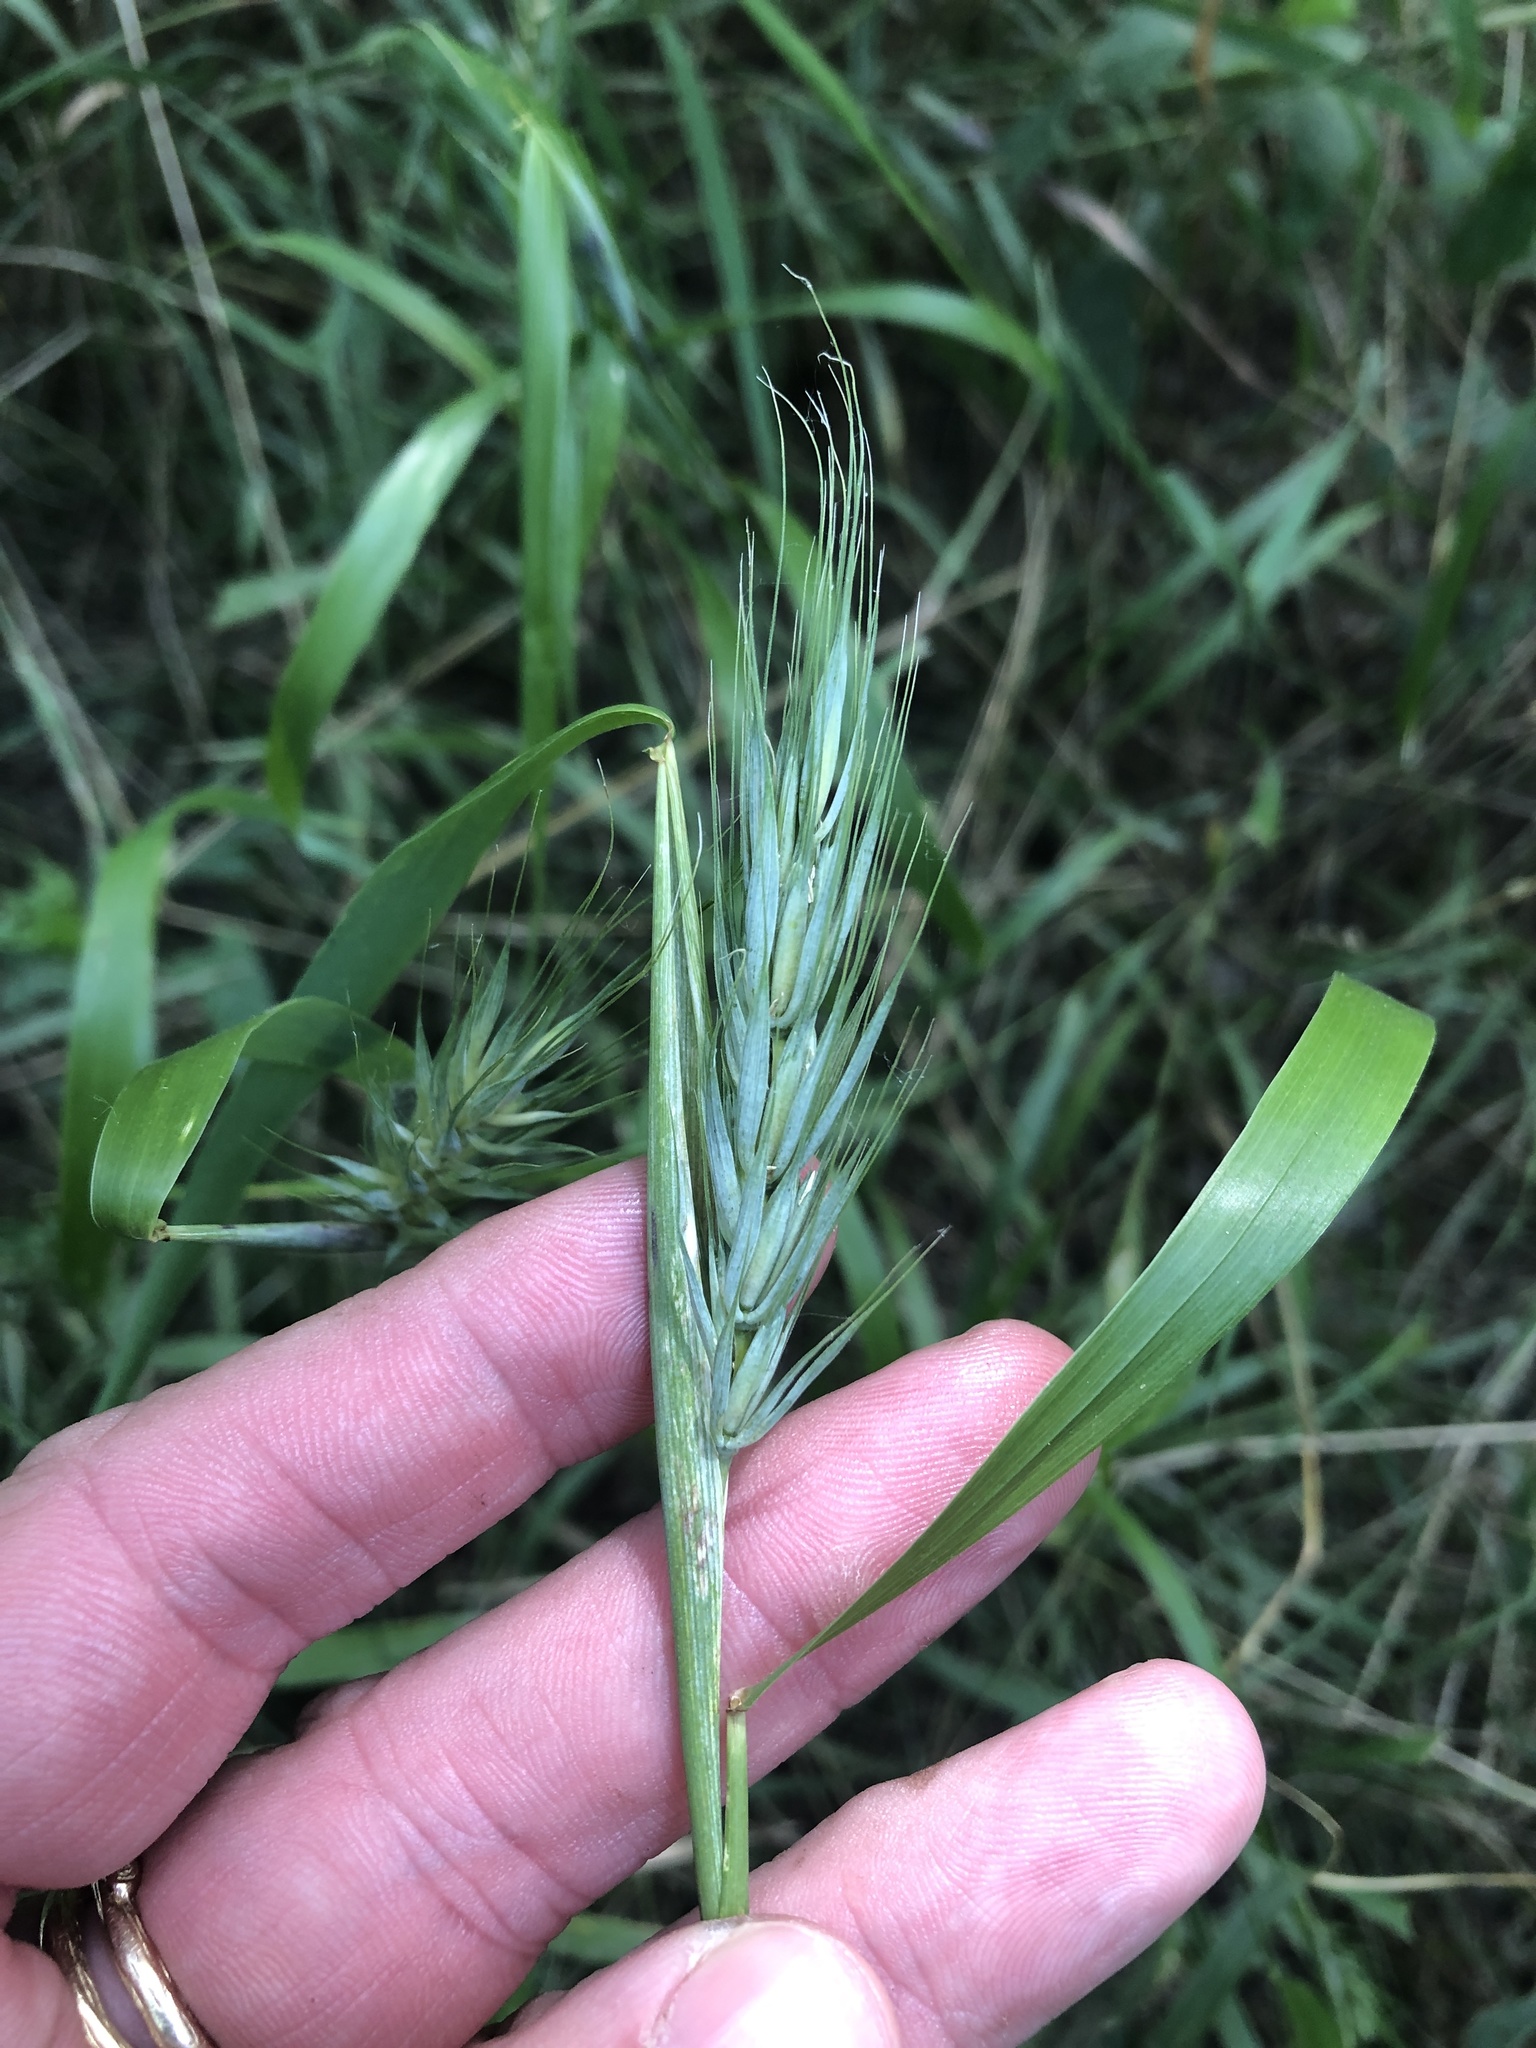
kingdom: Plantae
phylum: Tracheophyta
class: Liliopsida
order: Poales
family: Poaceae
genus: Elymus
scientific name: Elymus virginicus
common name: Common eastern wildrye
